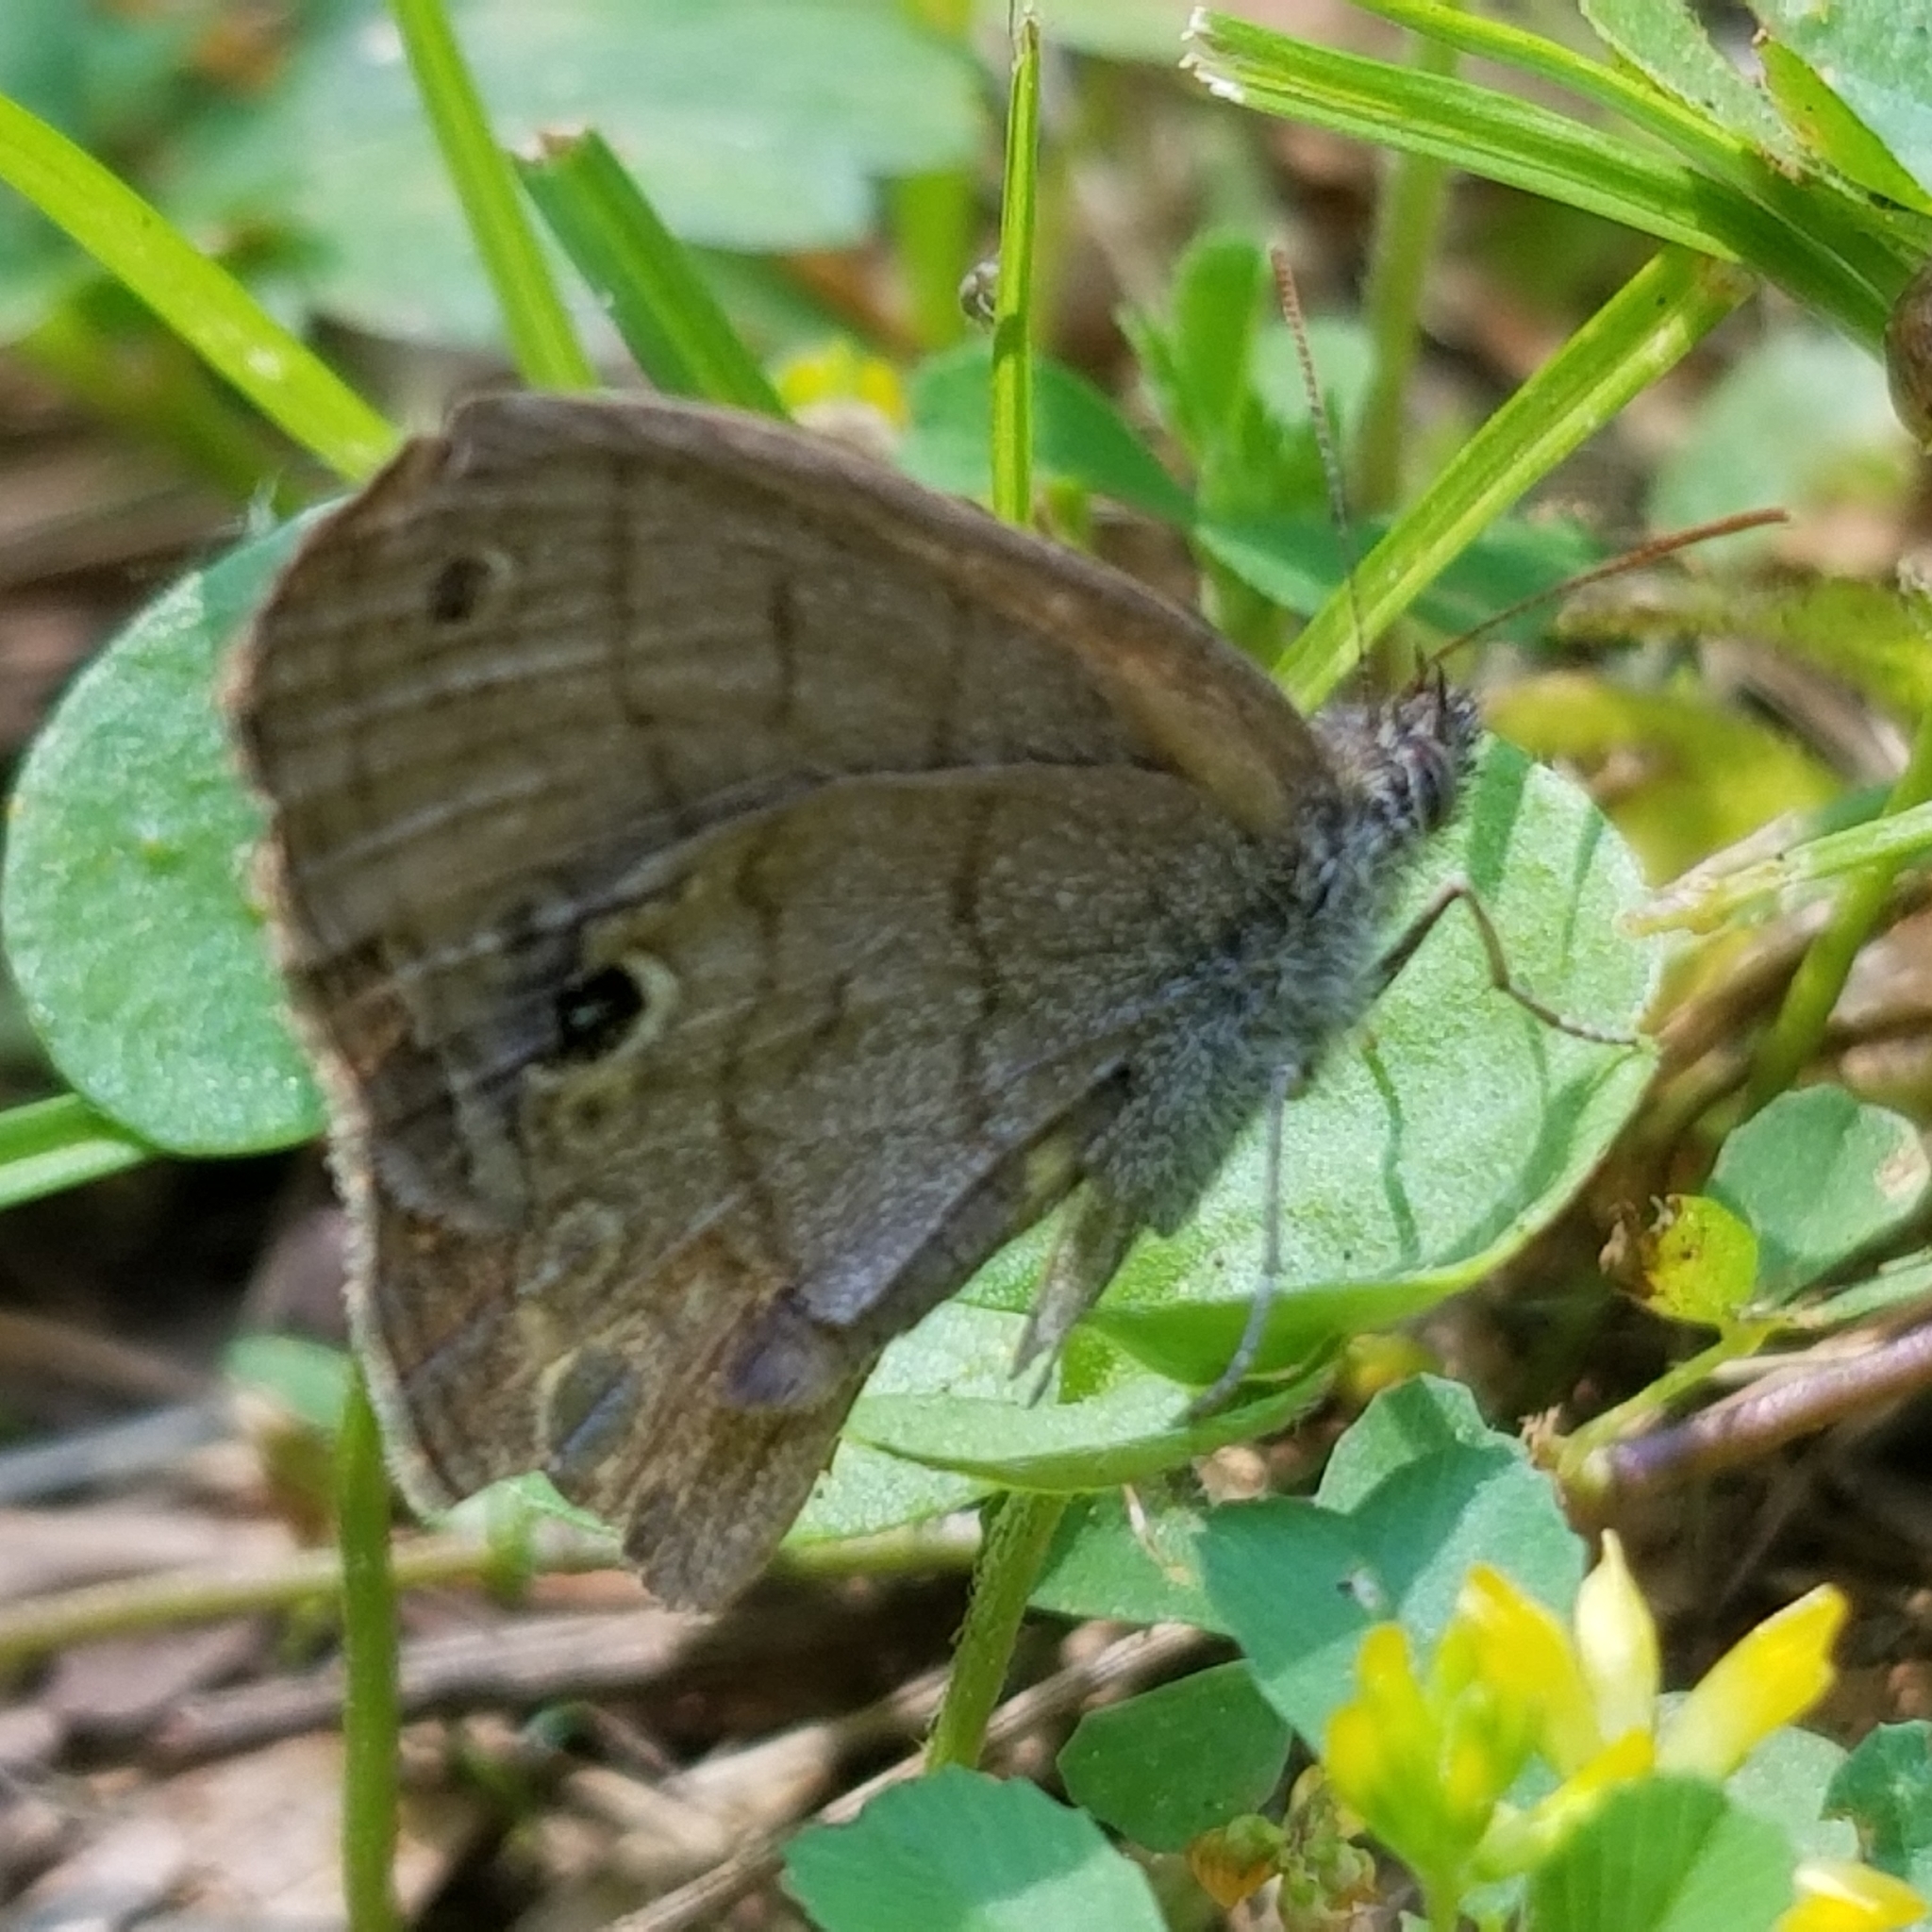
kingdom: Animalia
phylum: Arthropoda
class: Insecta
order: Lepidoptera
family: Nymphalidae
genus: Hermeuptychia
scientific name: Hermeuptychia hermes
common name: Hermes satyr
